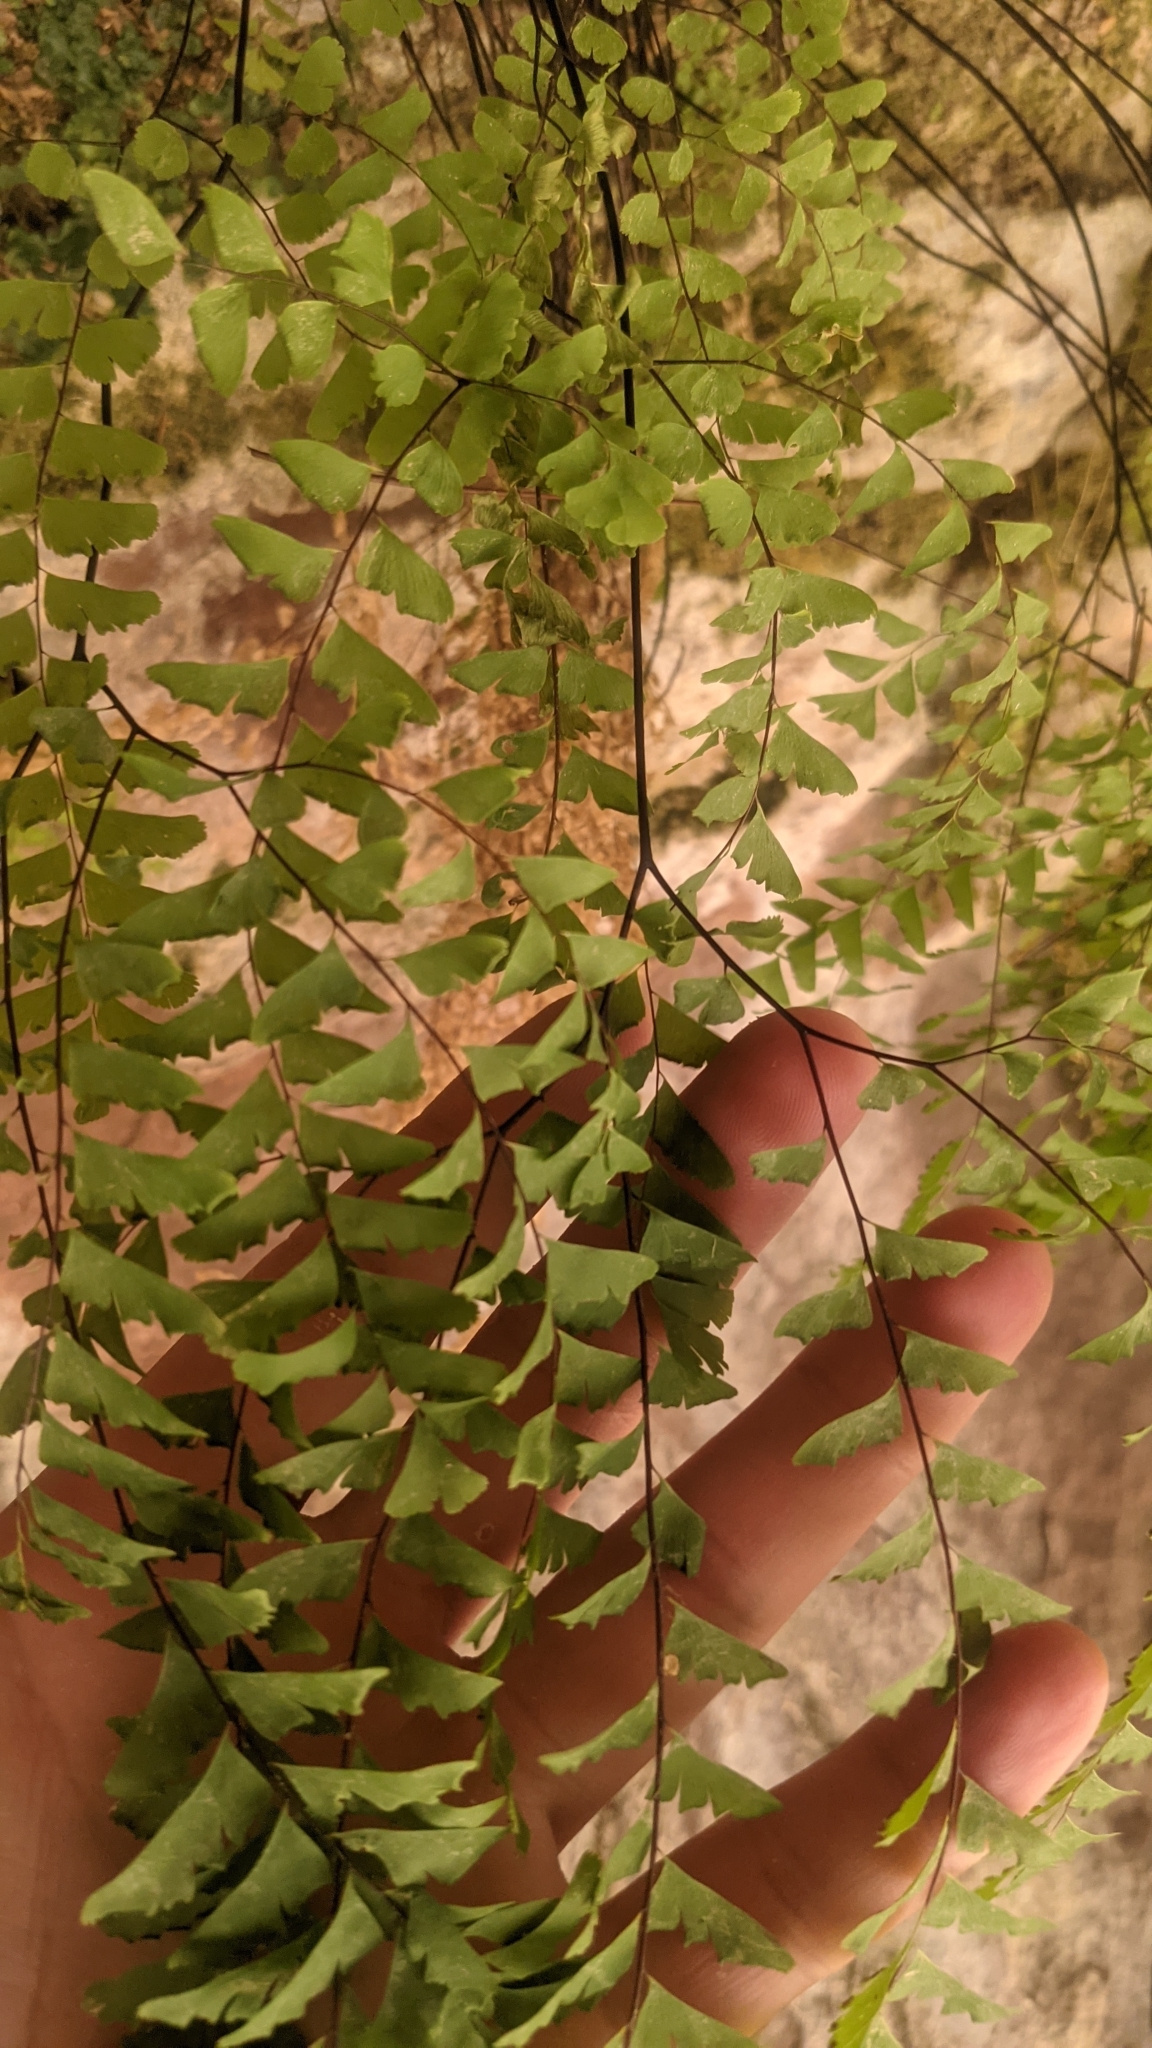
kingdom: Plantae
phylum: Tracheophyta
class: Polypodiopsida
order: Polypodiales
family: Pteridaceae
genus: Adiantum
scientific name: Adiantum aleuticum
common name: Aleutian maidenhair fern
